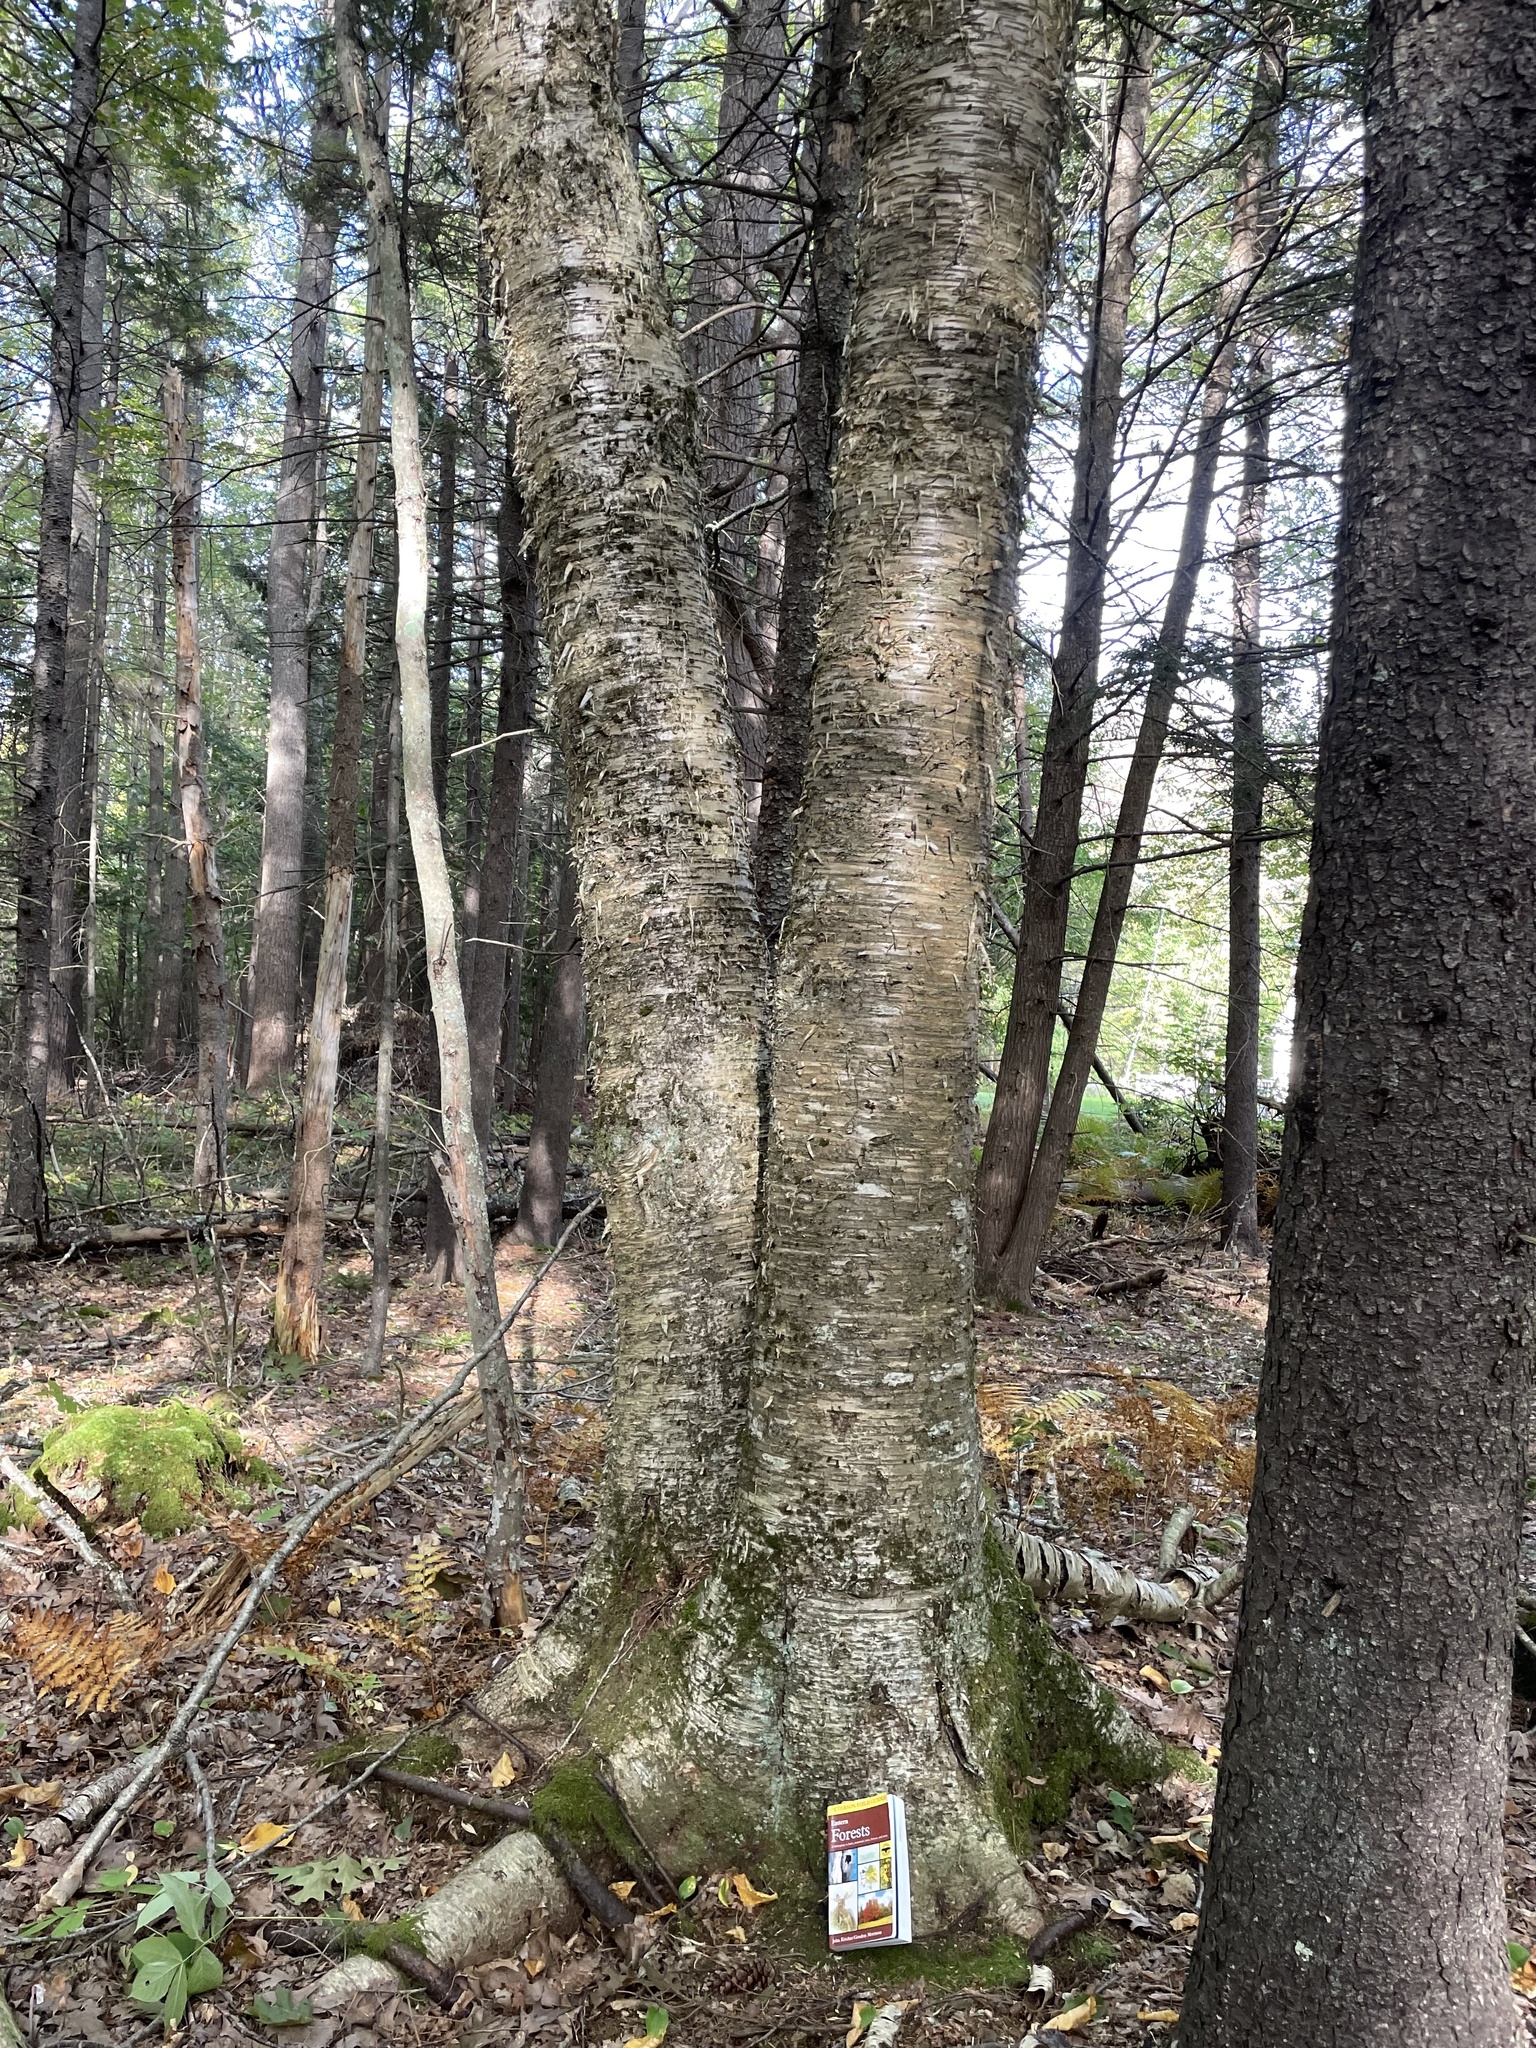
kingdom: Plantae
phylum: Tracheophyta
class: Magnoliopsida
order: Fagales
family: Betulaceae
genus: Betula
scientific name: Betula alleghaniensis
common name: Yellow birch
